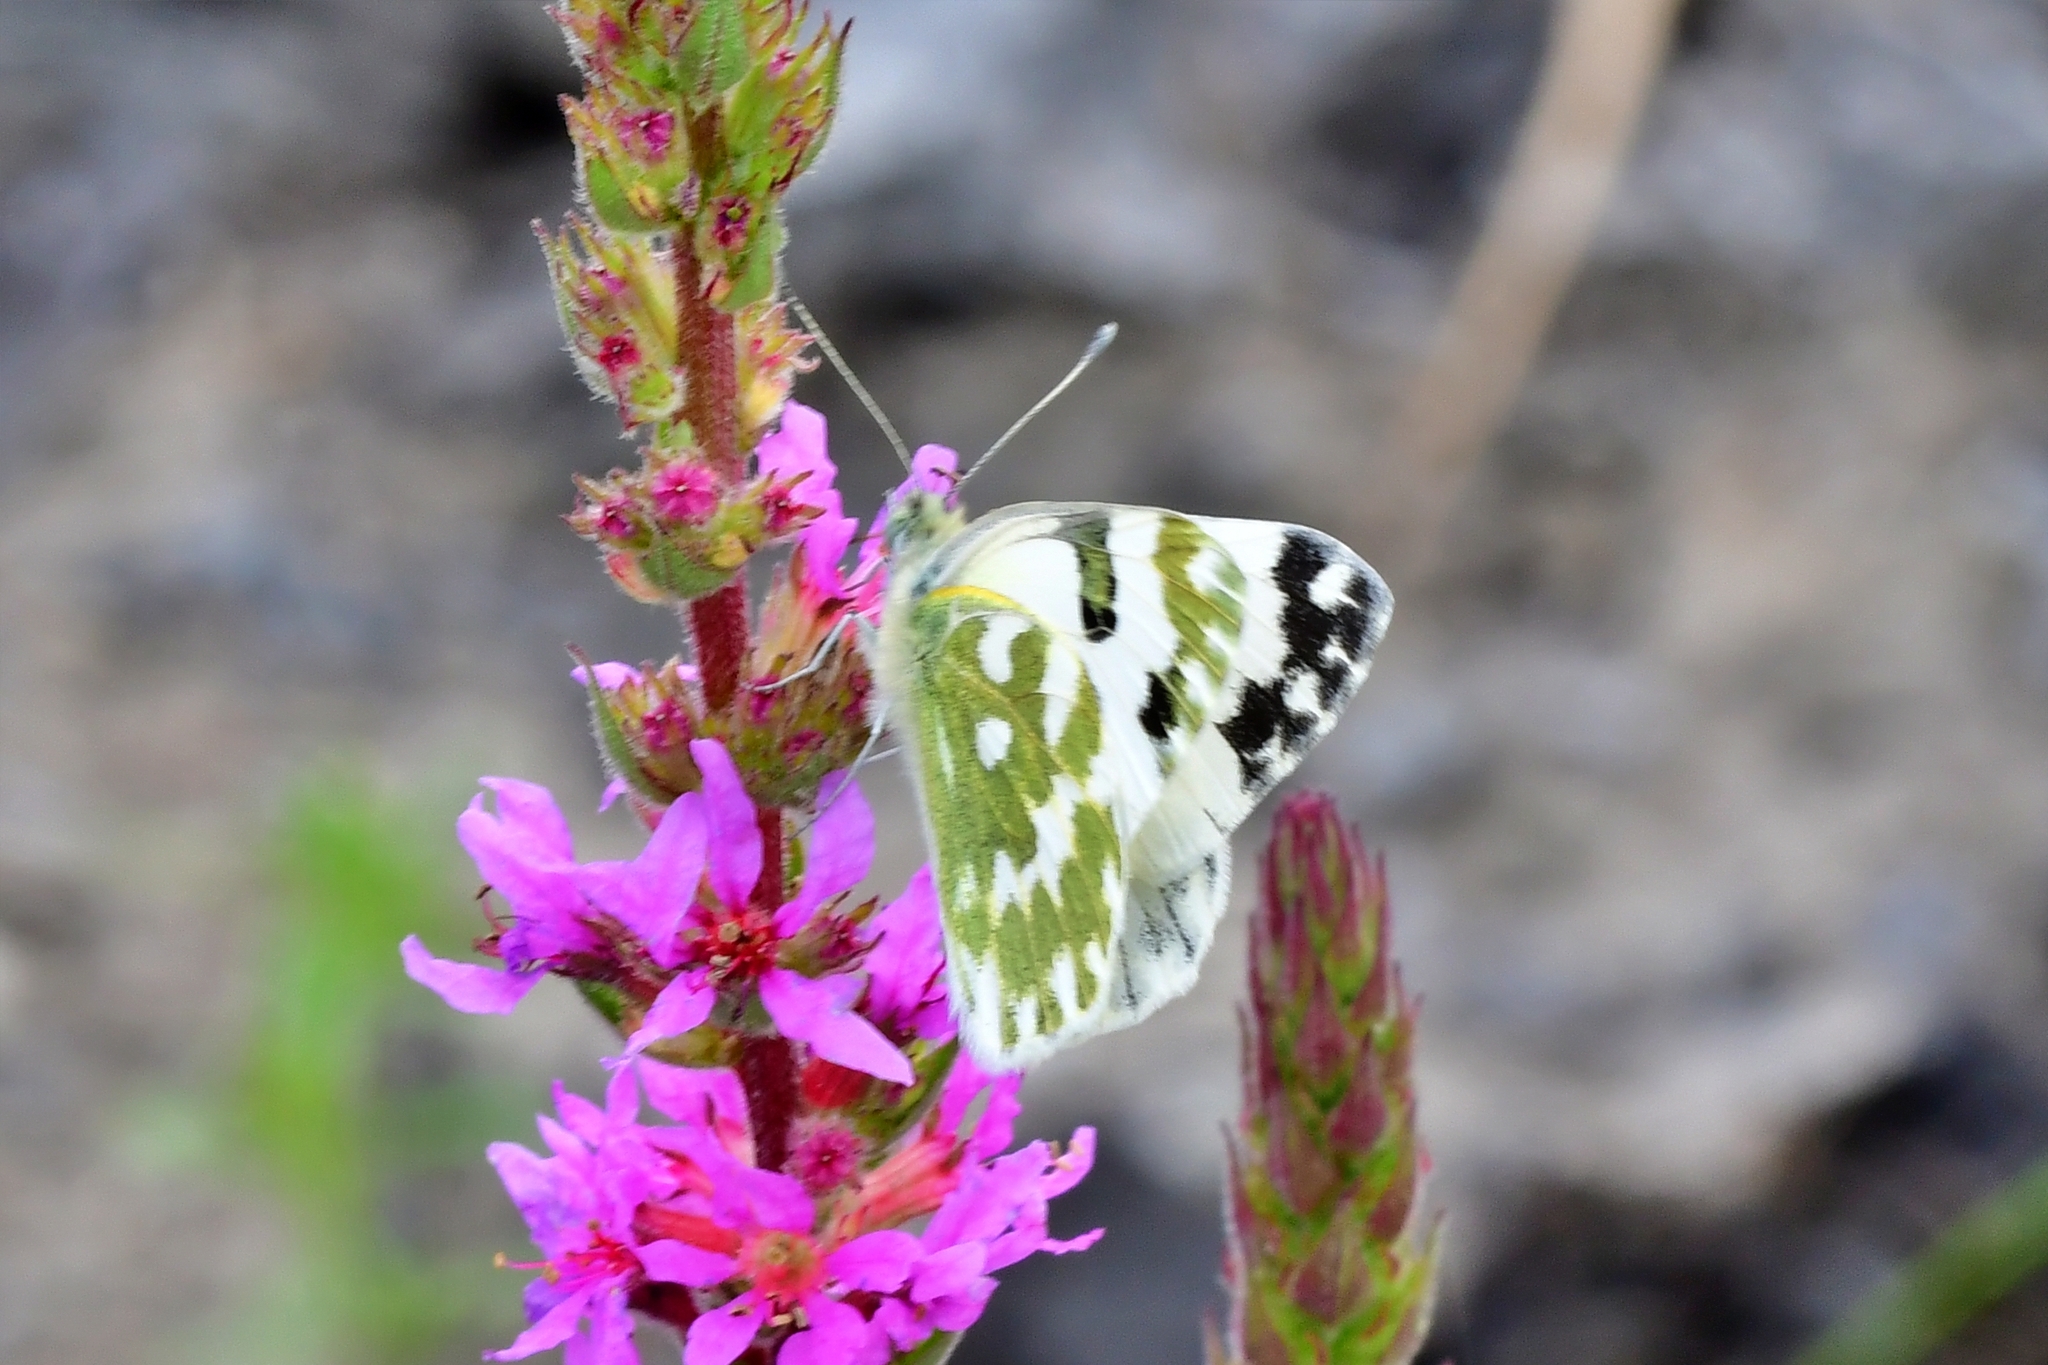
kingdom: Animalia
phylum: Arthropoda
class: Insecta
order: Lepidoptera
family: Pieridae
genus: Pontia
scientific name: Pontia edusa
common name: Eastern bath white
